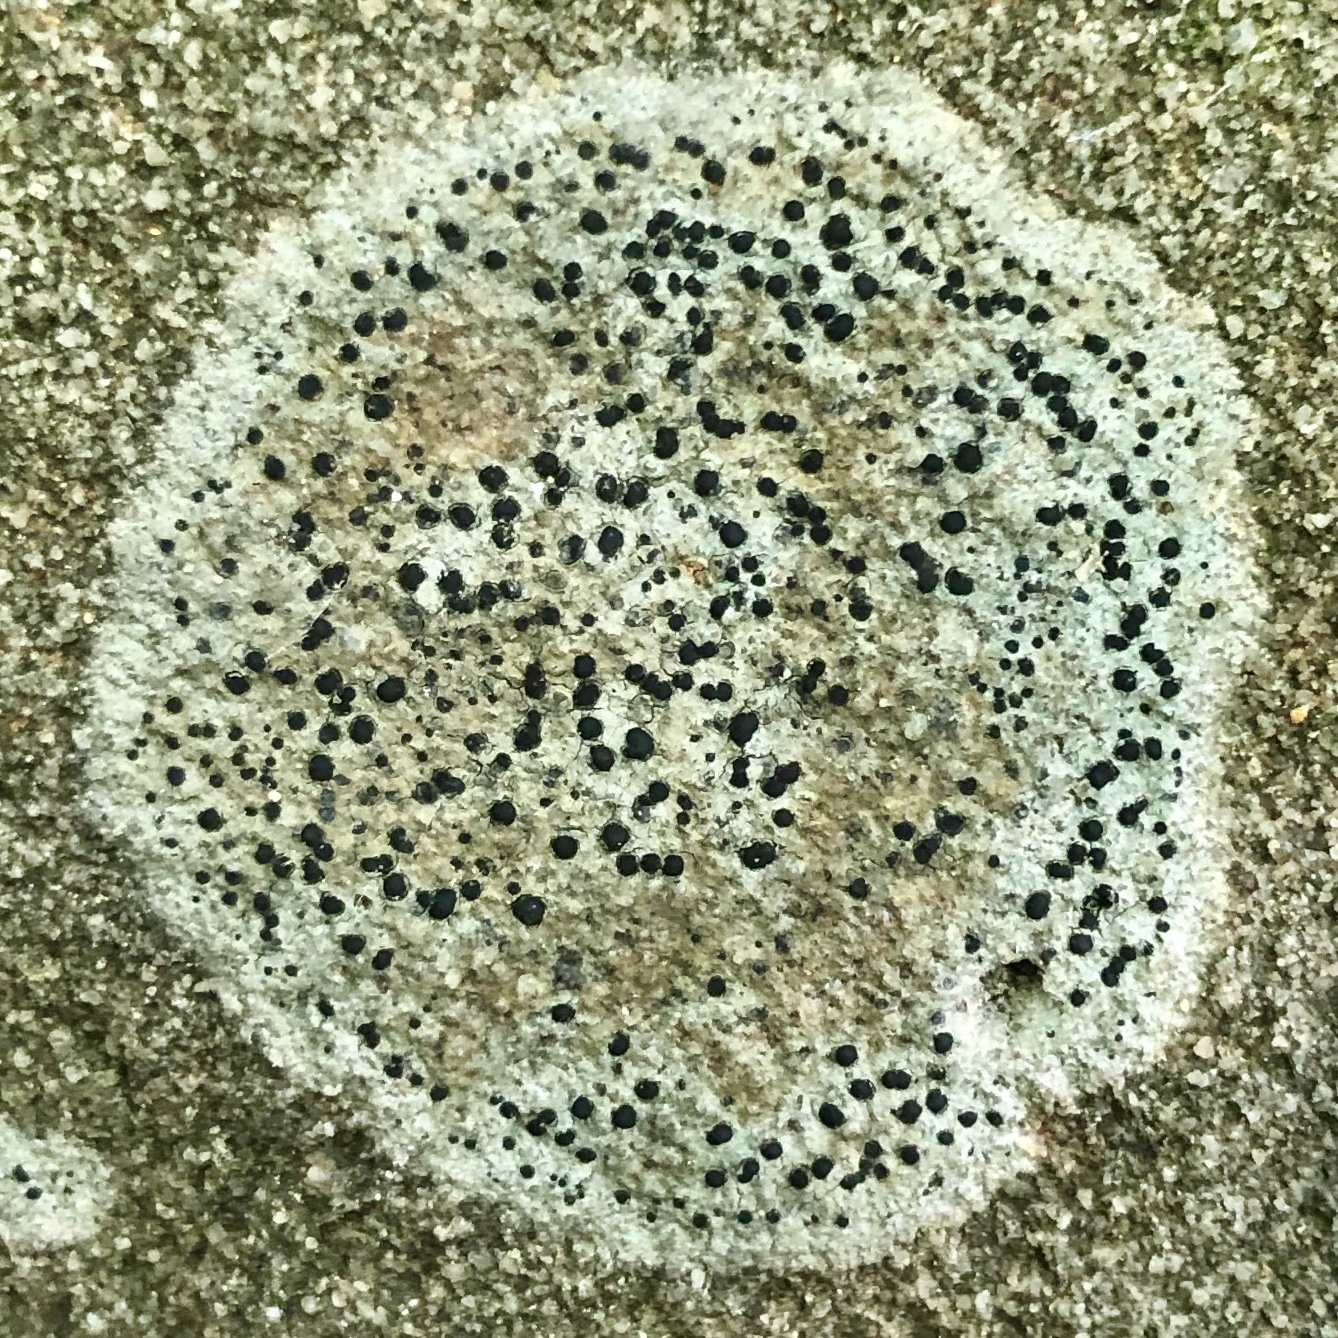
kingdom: Fungi
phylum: Ascomycota
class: Lecanoromycetes
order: Lecideales
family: Lecideaceae
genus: Porpidia
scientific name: Porpidia crustulata
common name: Concentric boulder lichen
